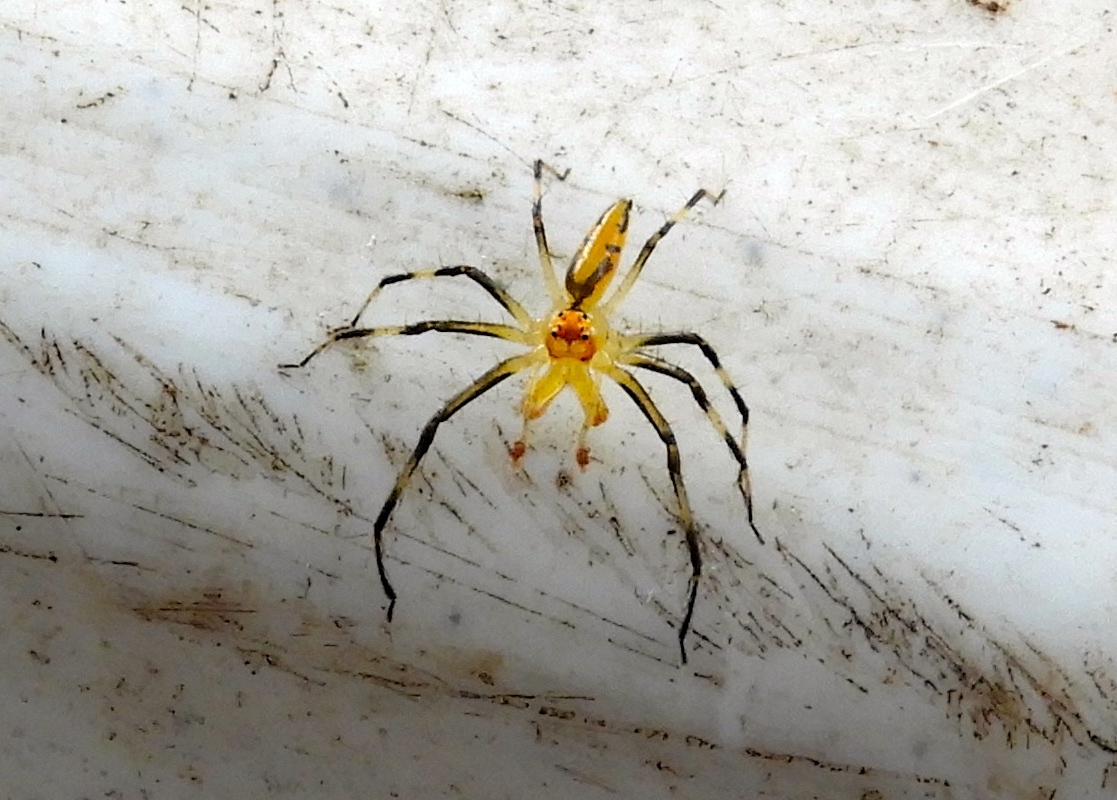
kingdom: Animalia
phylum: Arthropoda
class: Arachnida
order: Araneae
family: Salticidae
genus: Lyssomanes
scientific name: Lyssomanes
